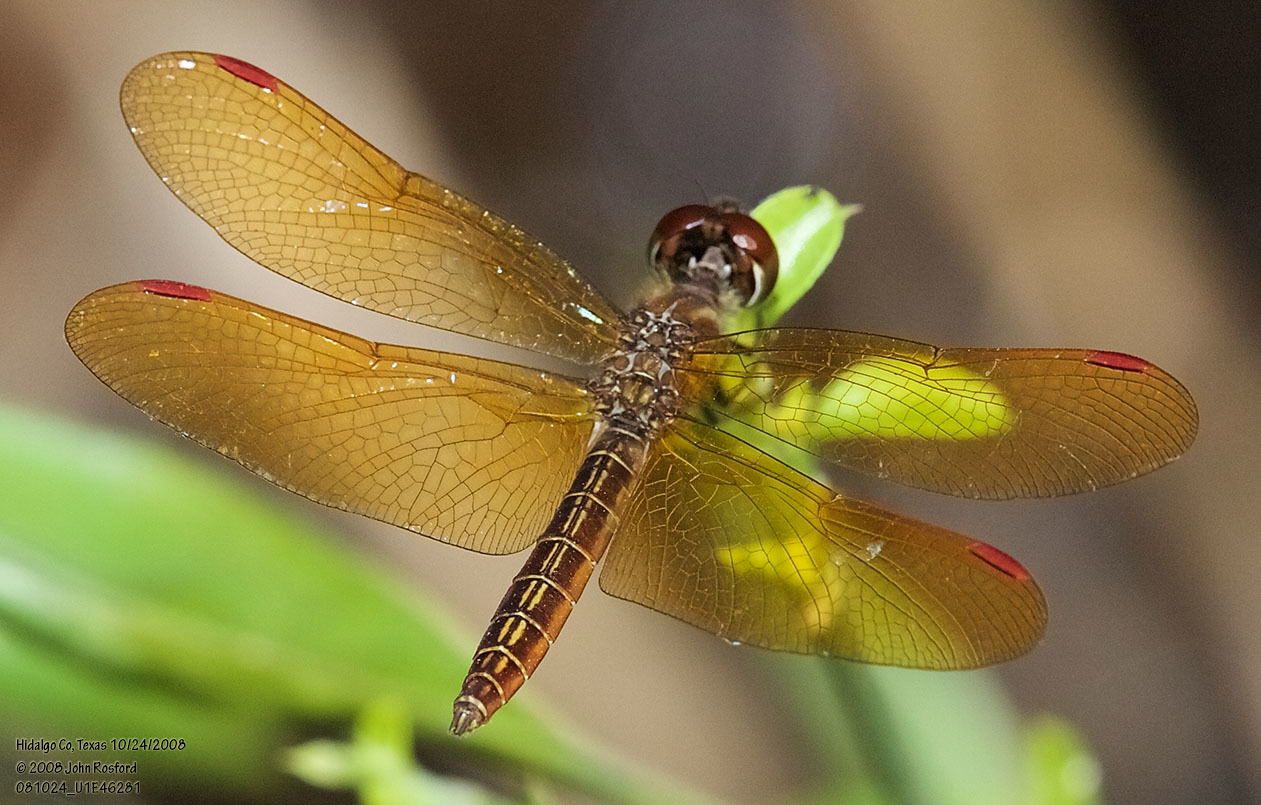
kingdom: Animalia
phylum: Arthropoda
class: Insecta
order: Odonata
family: Libellulidae
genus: Perithemis
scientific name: Perithemis domitia
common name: Slough amberwing
